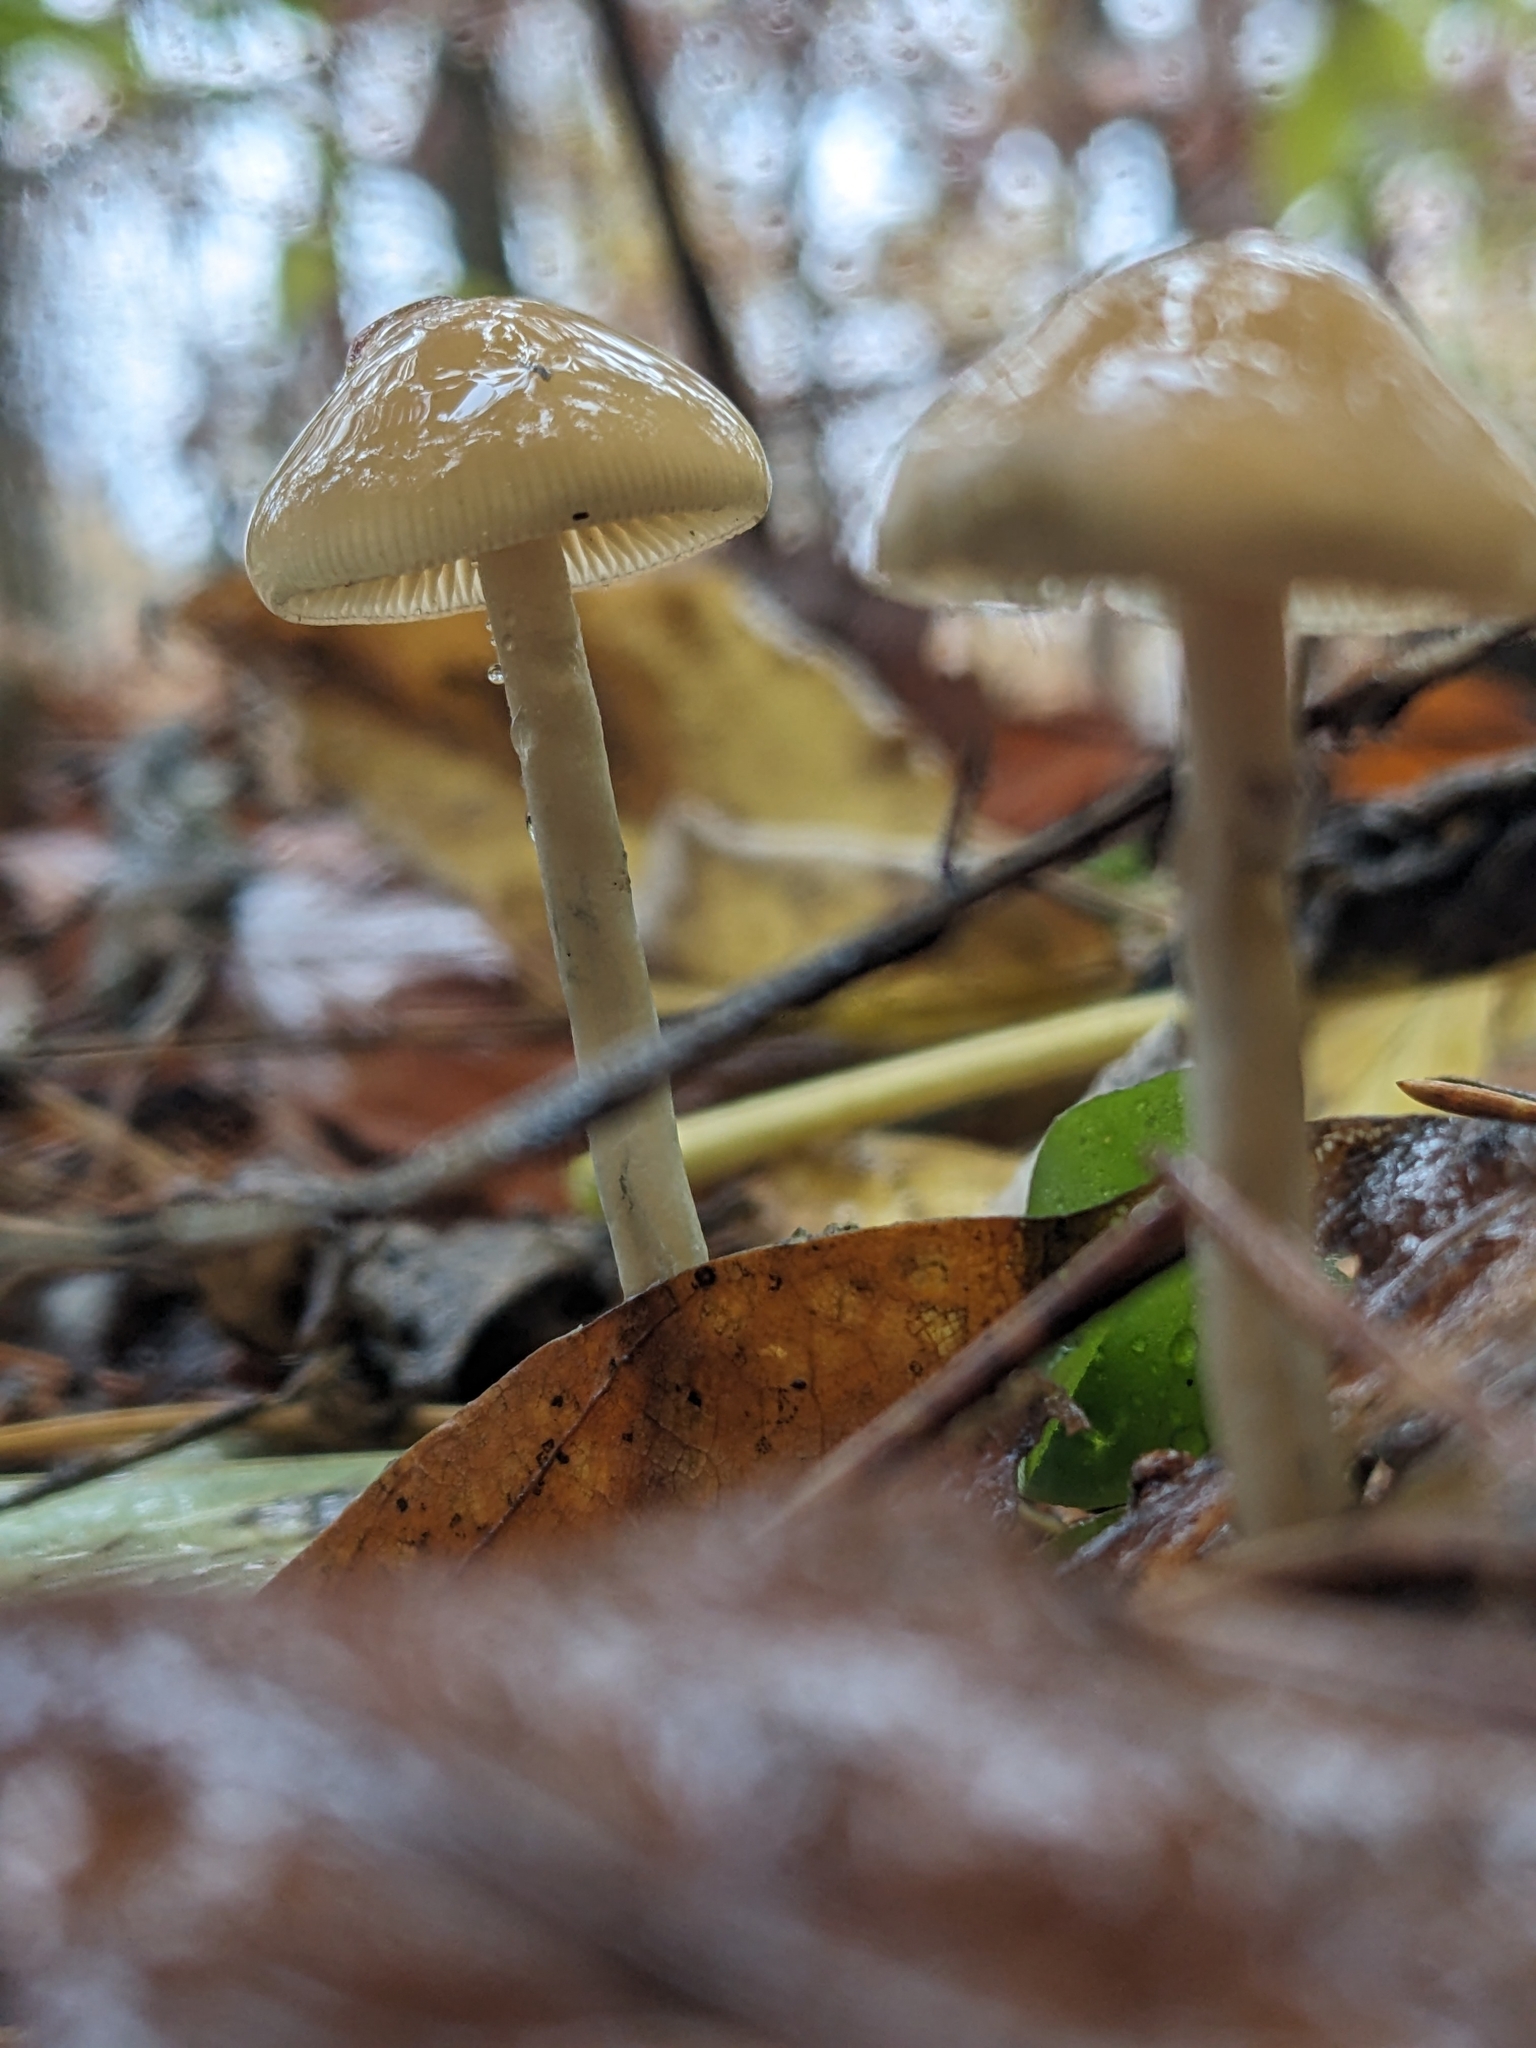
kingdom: Fungi
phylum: Basidiomycota
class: Agaricomycetes
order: Agaricales
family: Hymenogastraceae
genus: Psilocybe
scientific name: Psilocybe serbica
